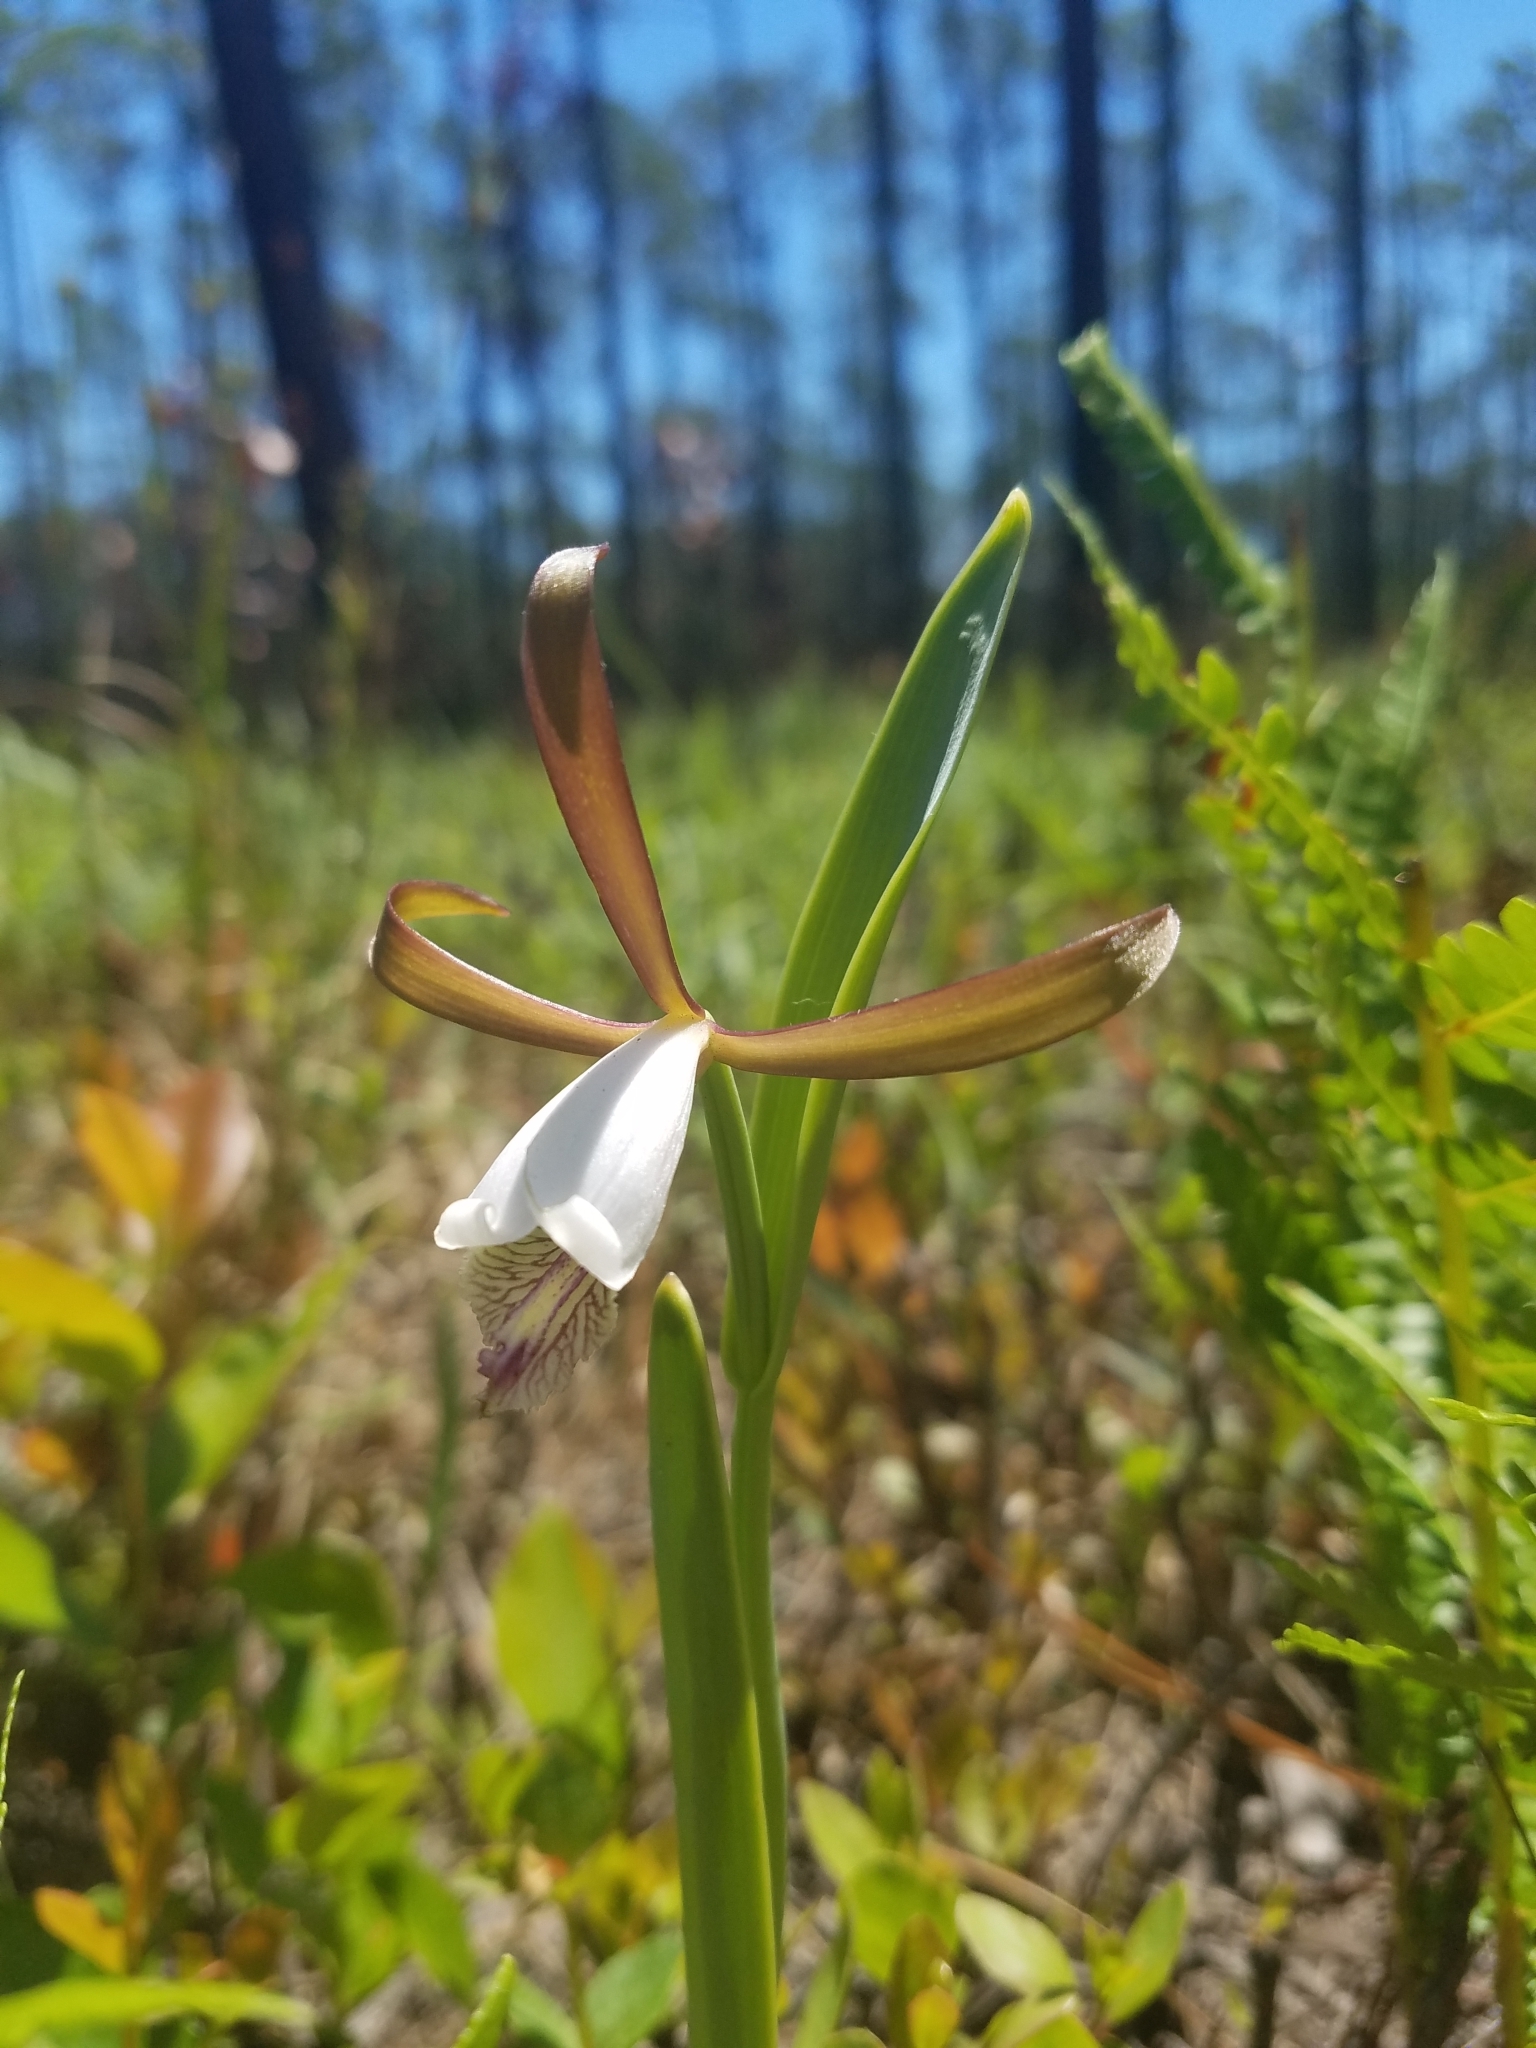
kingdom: Plantae
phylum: Tracheophyta
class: Liliopsida
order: Asparagales
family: Orchidaceae
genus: Cleistesiopsis
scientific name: Cleistesiopsis oricamporum
